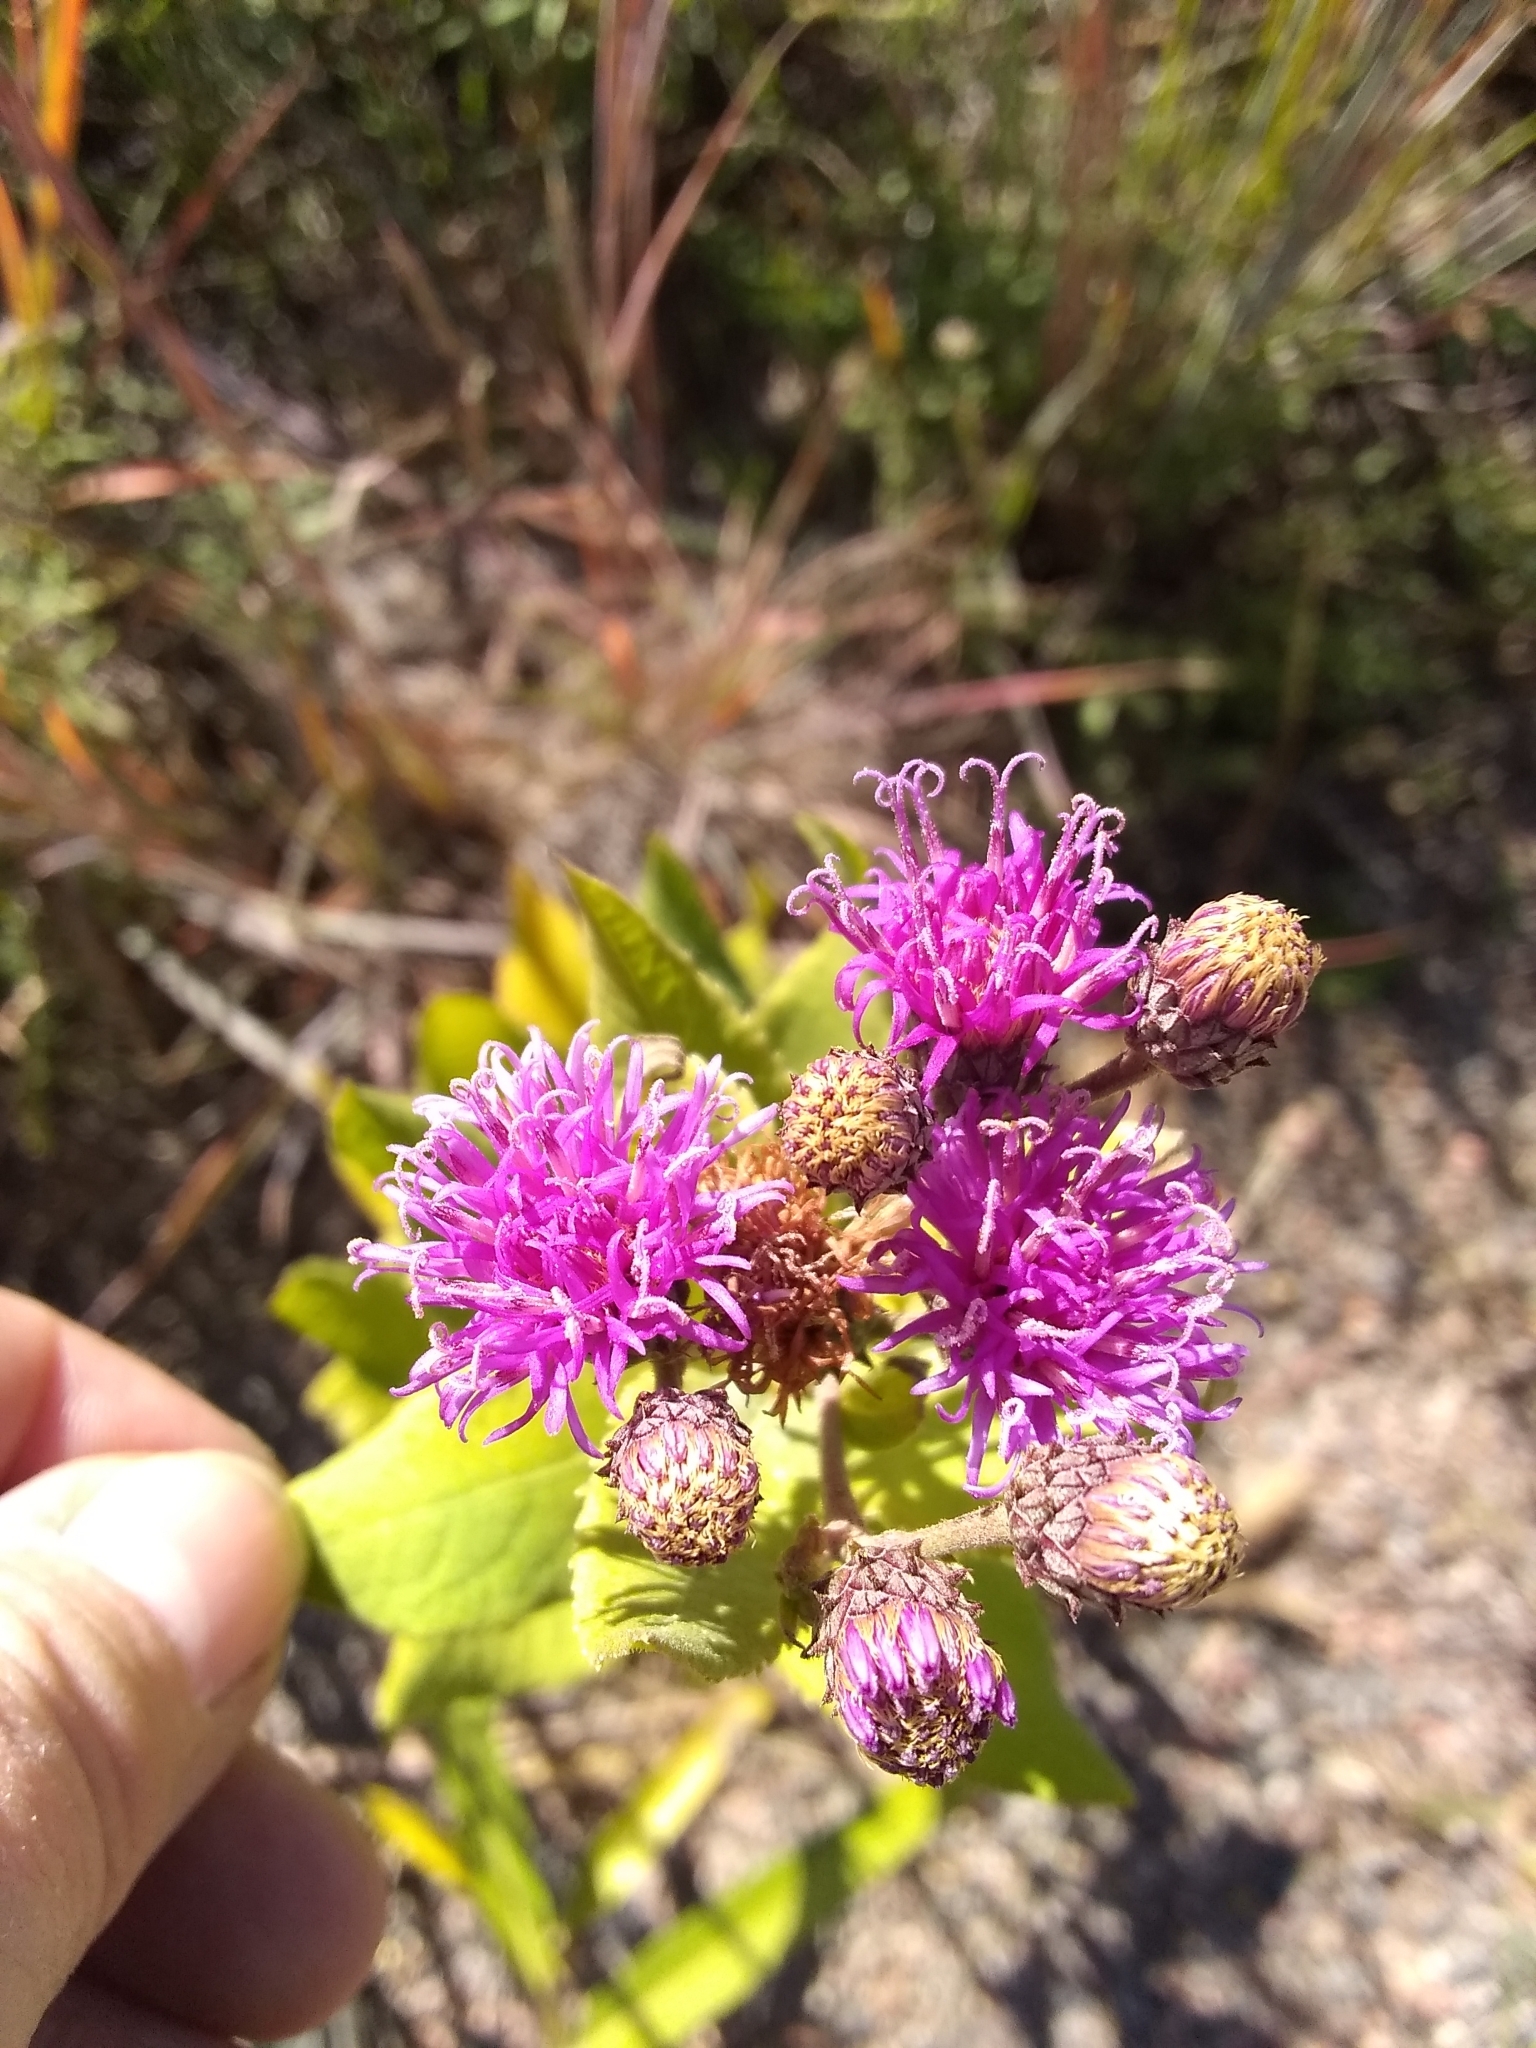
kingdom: Plantae
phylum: Tracheophyta
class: Magnoliopsida
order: Asterales
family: Asteraceae
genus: Vernonia
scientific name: Vernonia baldwinii
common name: Western ironweed
